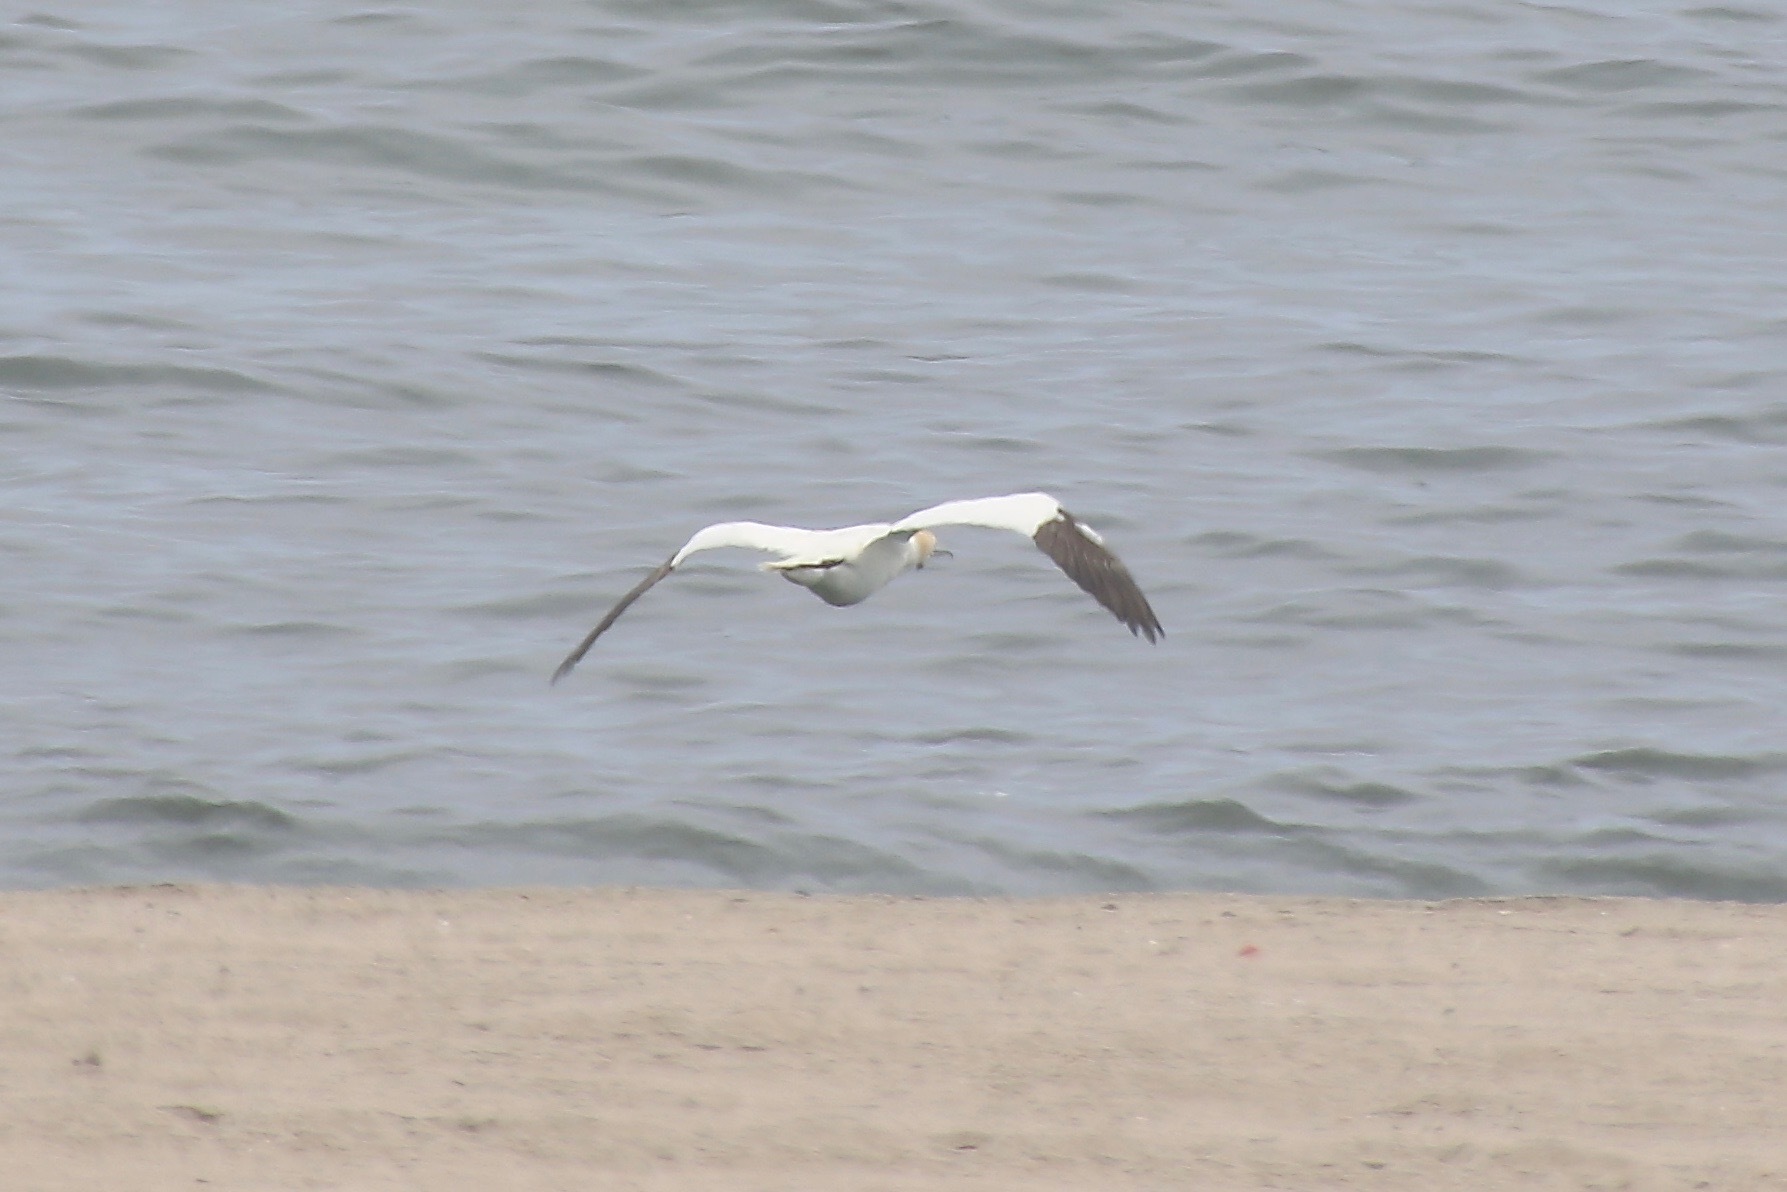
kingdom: Animalia
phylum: Chordata
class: Aves
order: Suliformes
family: Sulidae
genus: Morus
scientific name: Morus bassanus
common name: Northern gannet
